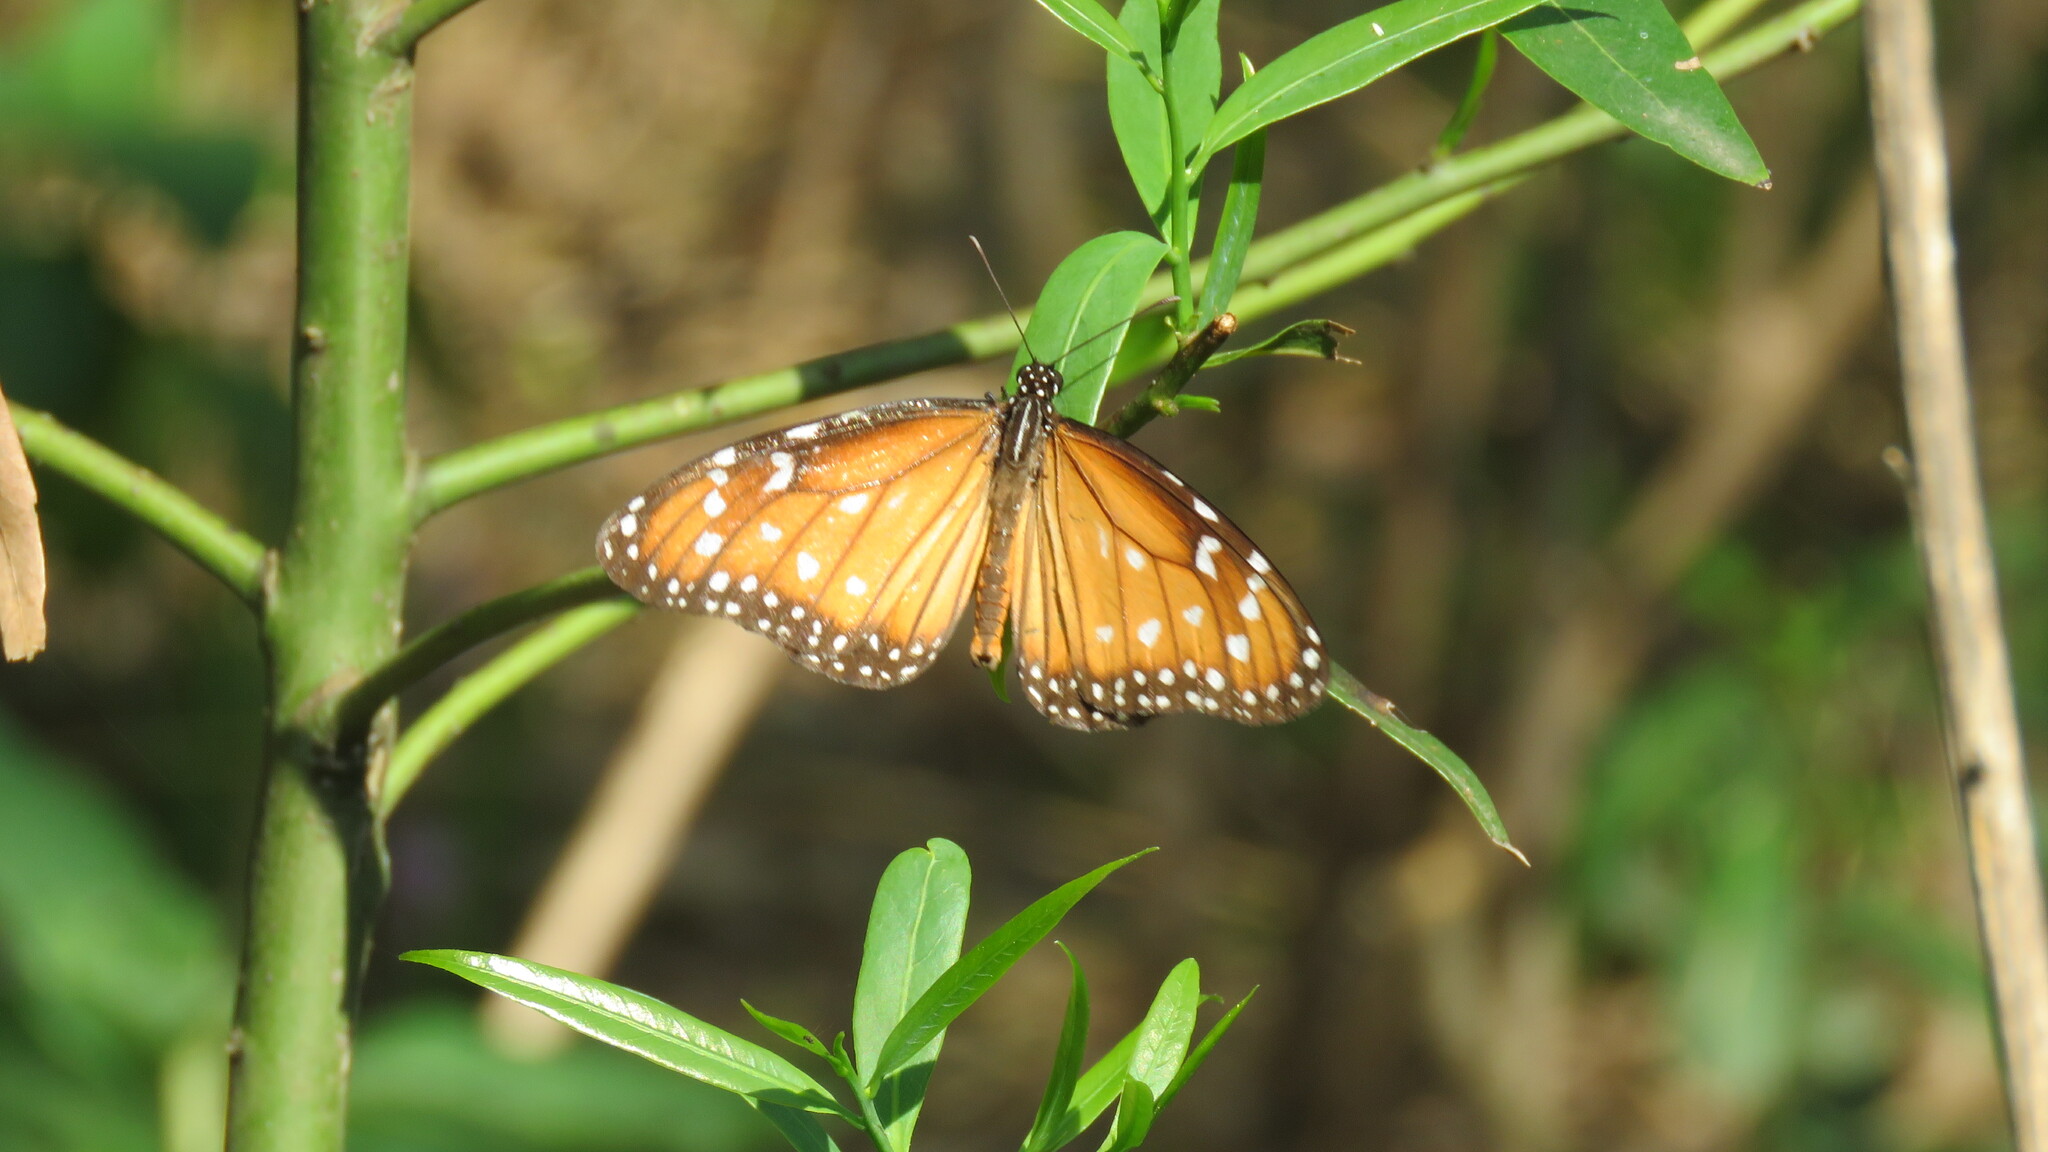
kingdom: Animalia
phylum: Arthropoda
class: Insecta
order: Lepidoptera
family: Nymphalidae
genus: Danaus
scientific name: Danaus eresimus
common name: Soldier
